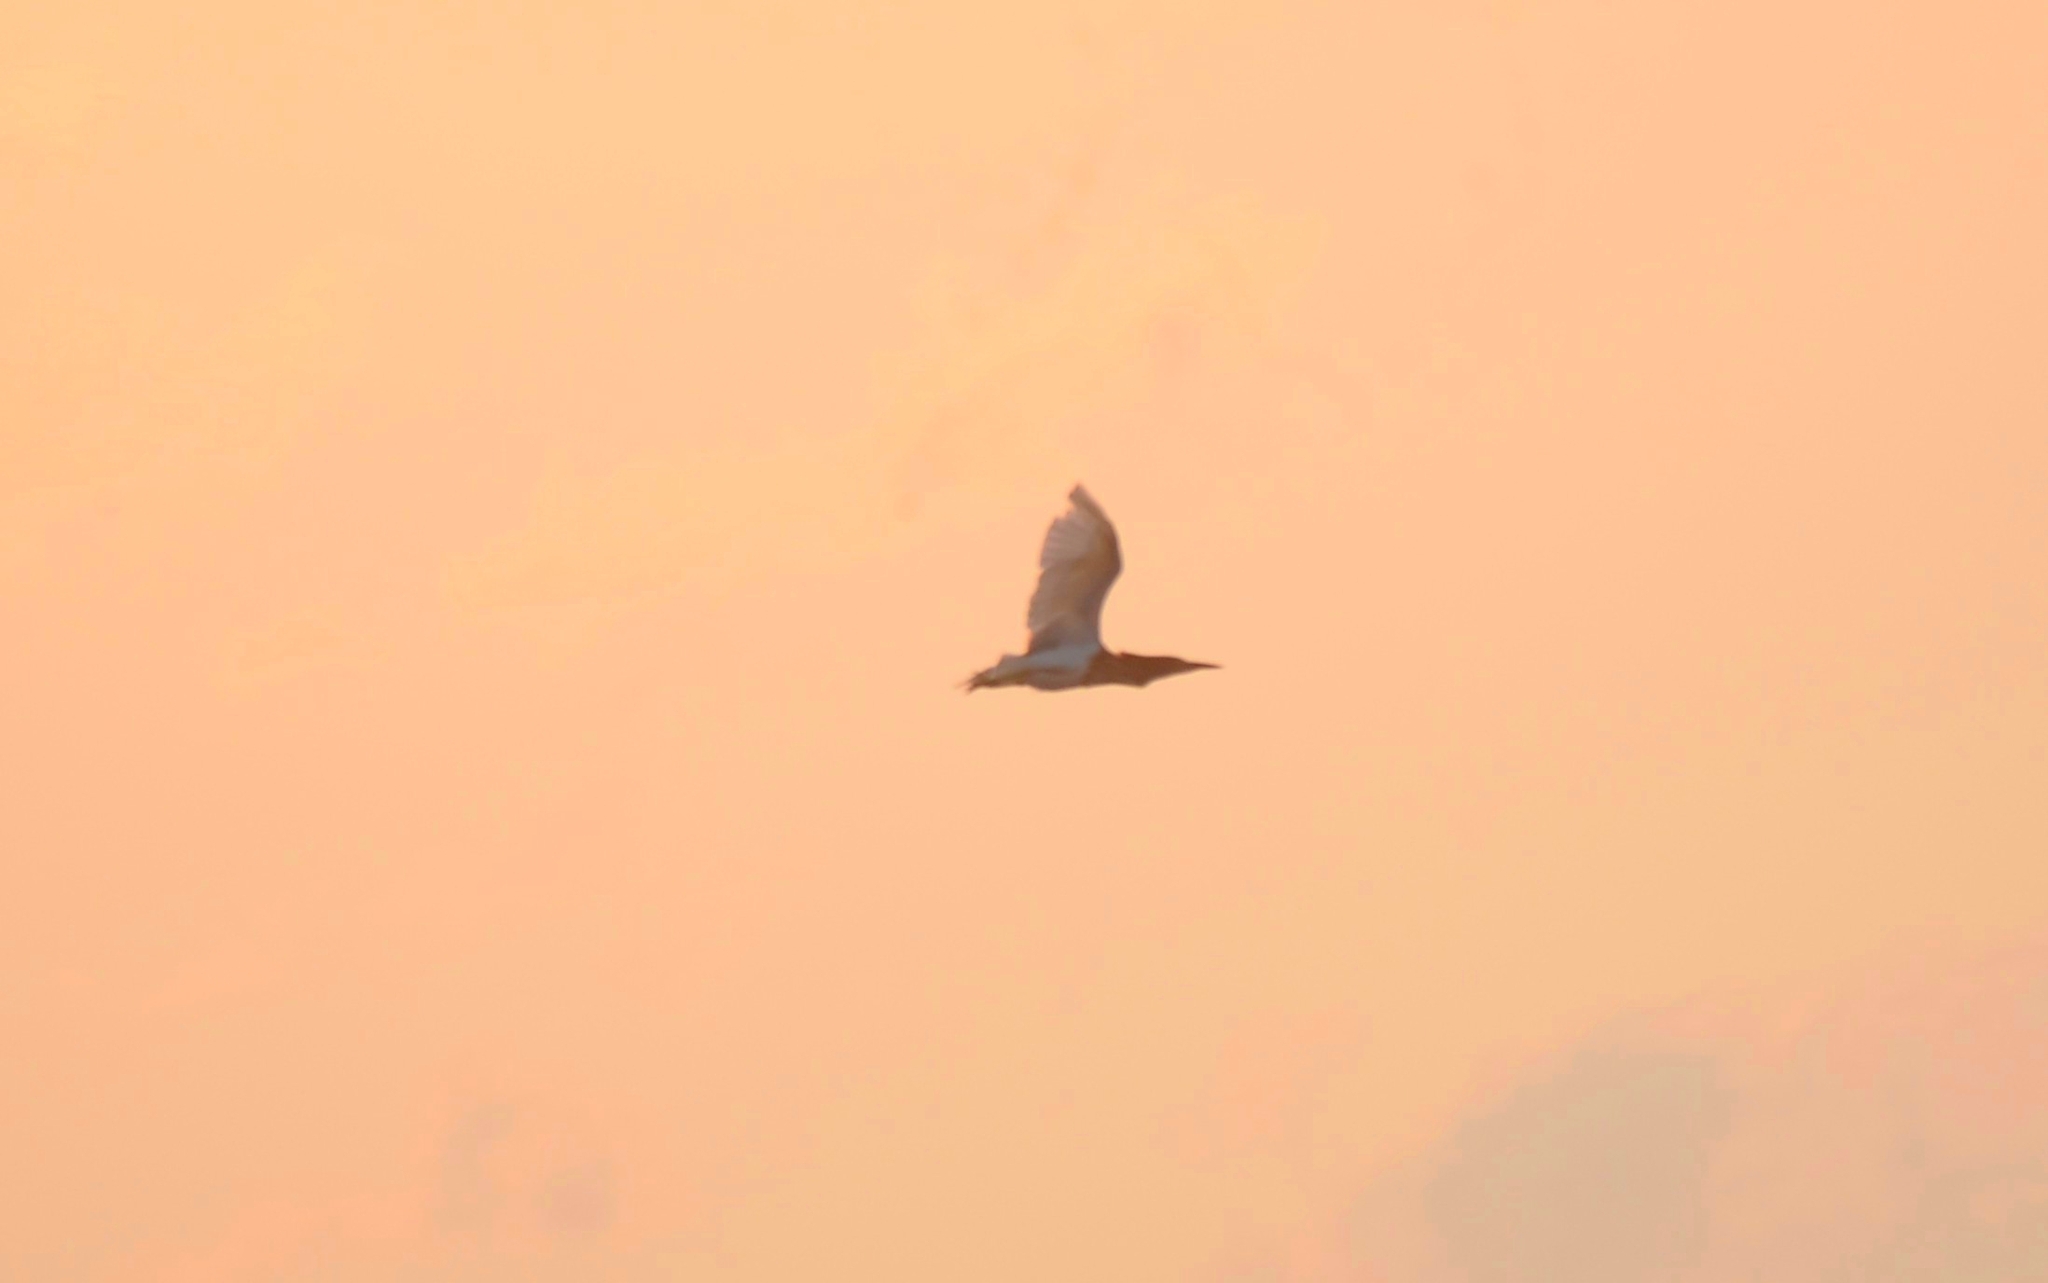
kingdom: Animalia
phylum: Chordata
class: Aves
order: Pelecaniformes
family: Ardeidae
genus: Ardeola
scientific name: Ardeola grayii
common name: Indian pond heron
